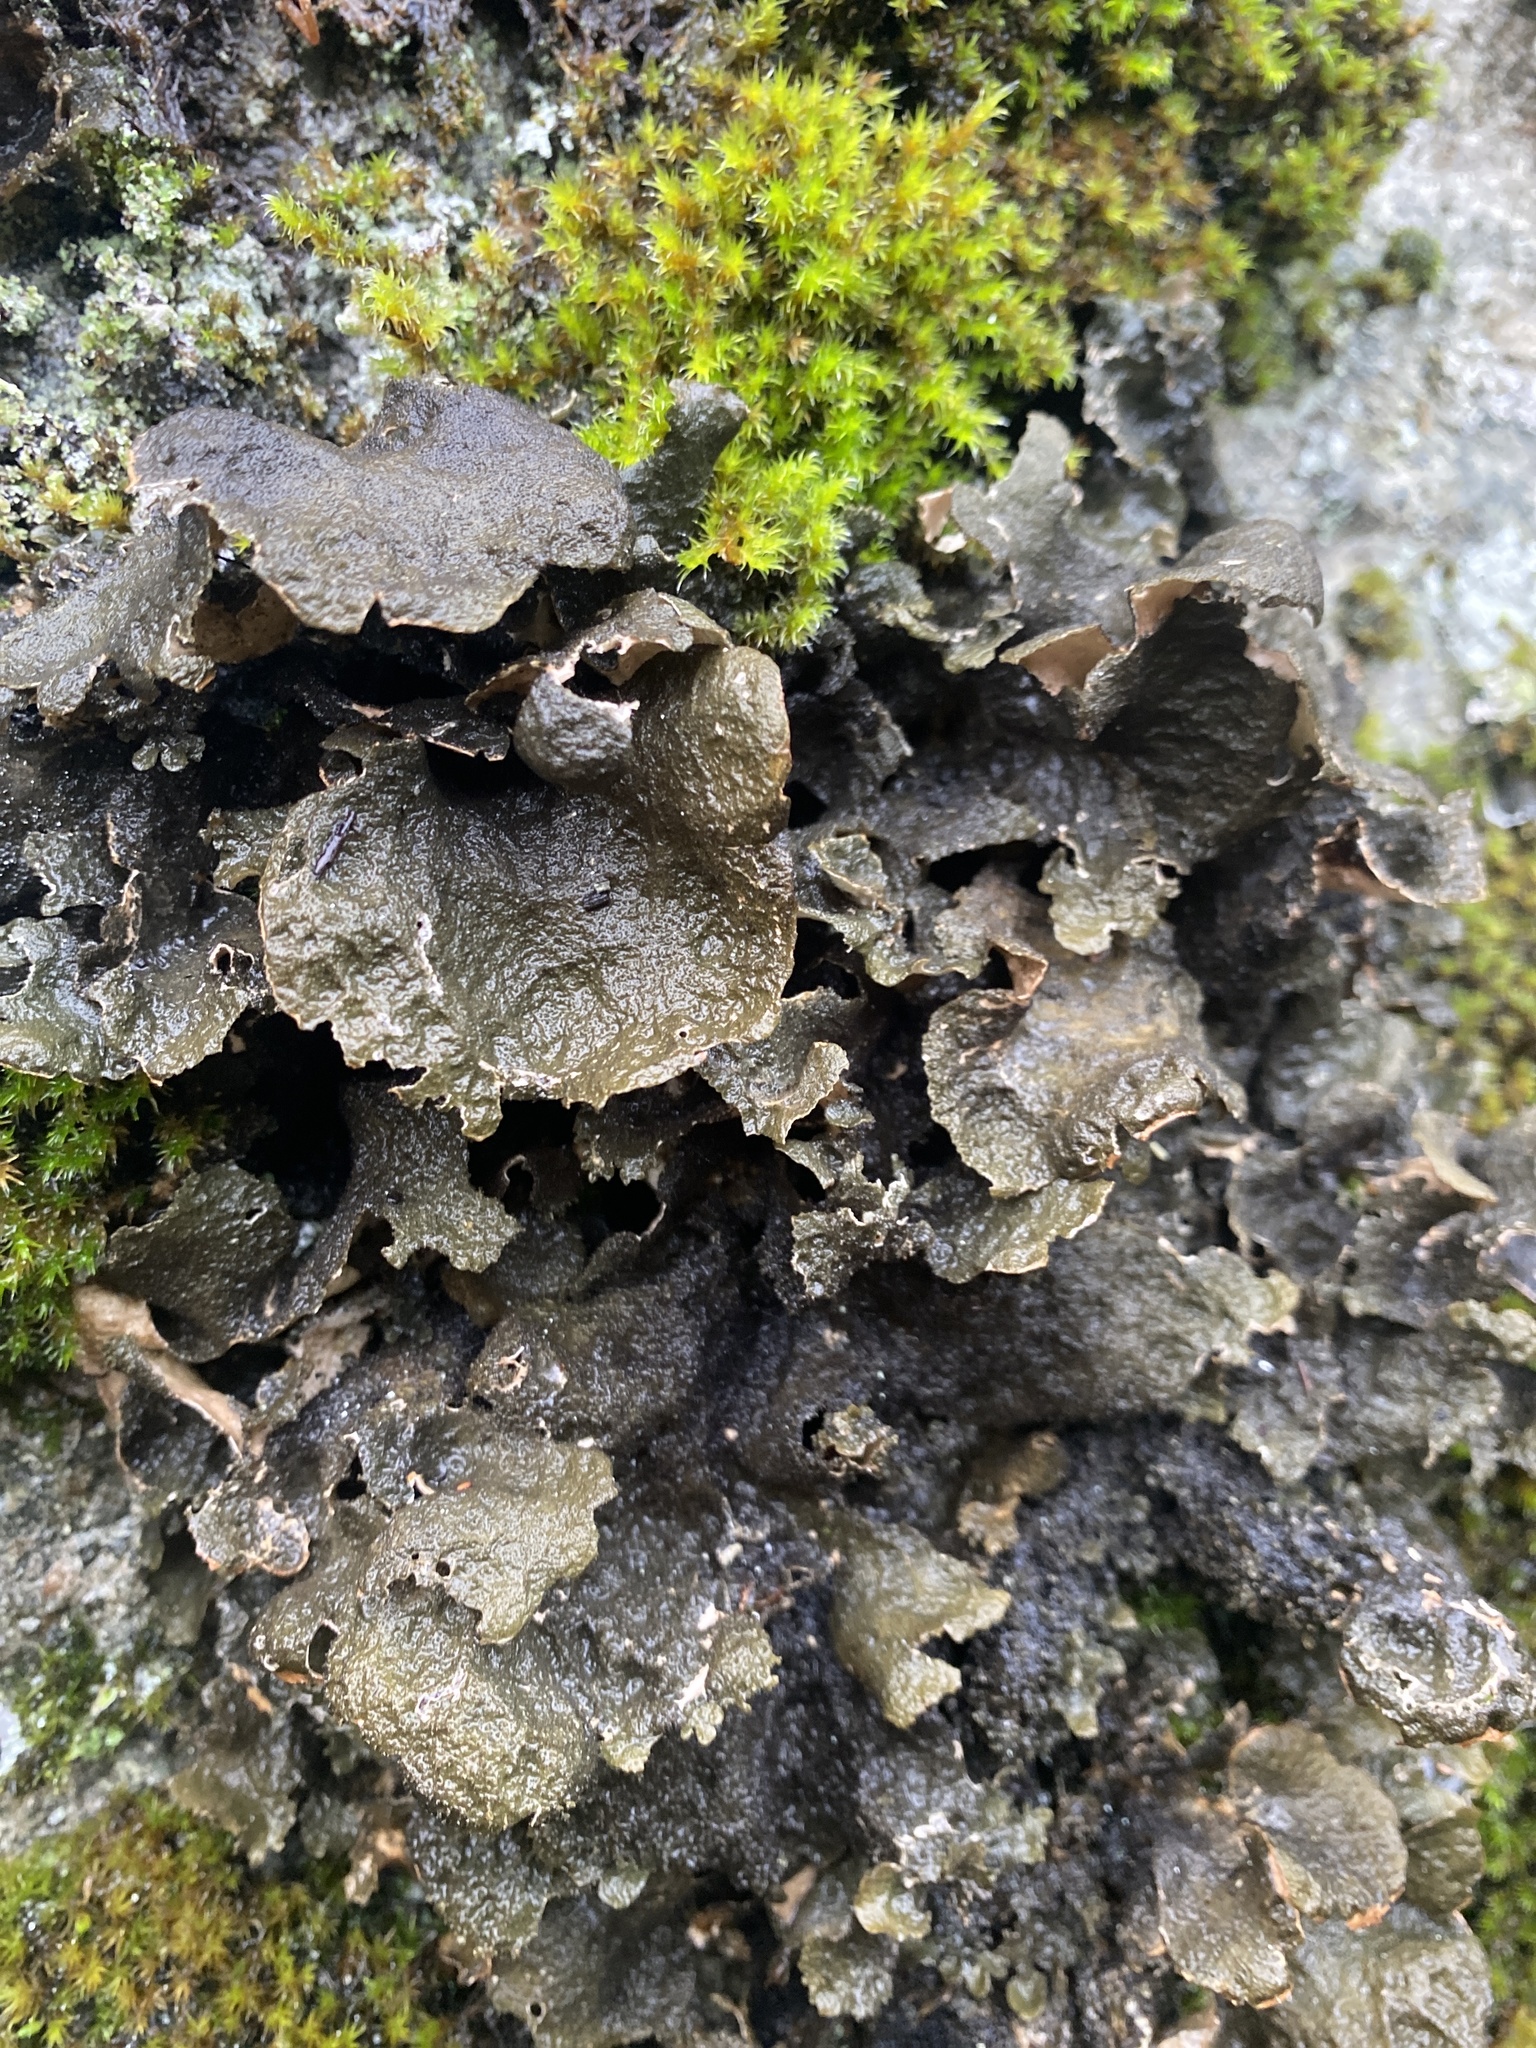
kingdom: Fungi
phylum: Ascomycota
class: Lecanoromycetes
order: Peltigerales
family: Lobariaceae
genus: Sticta
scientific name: Sticta fuliginosa
